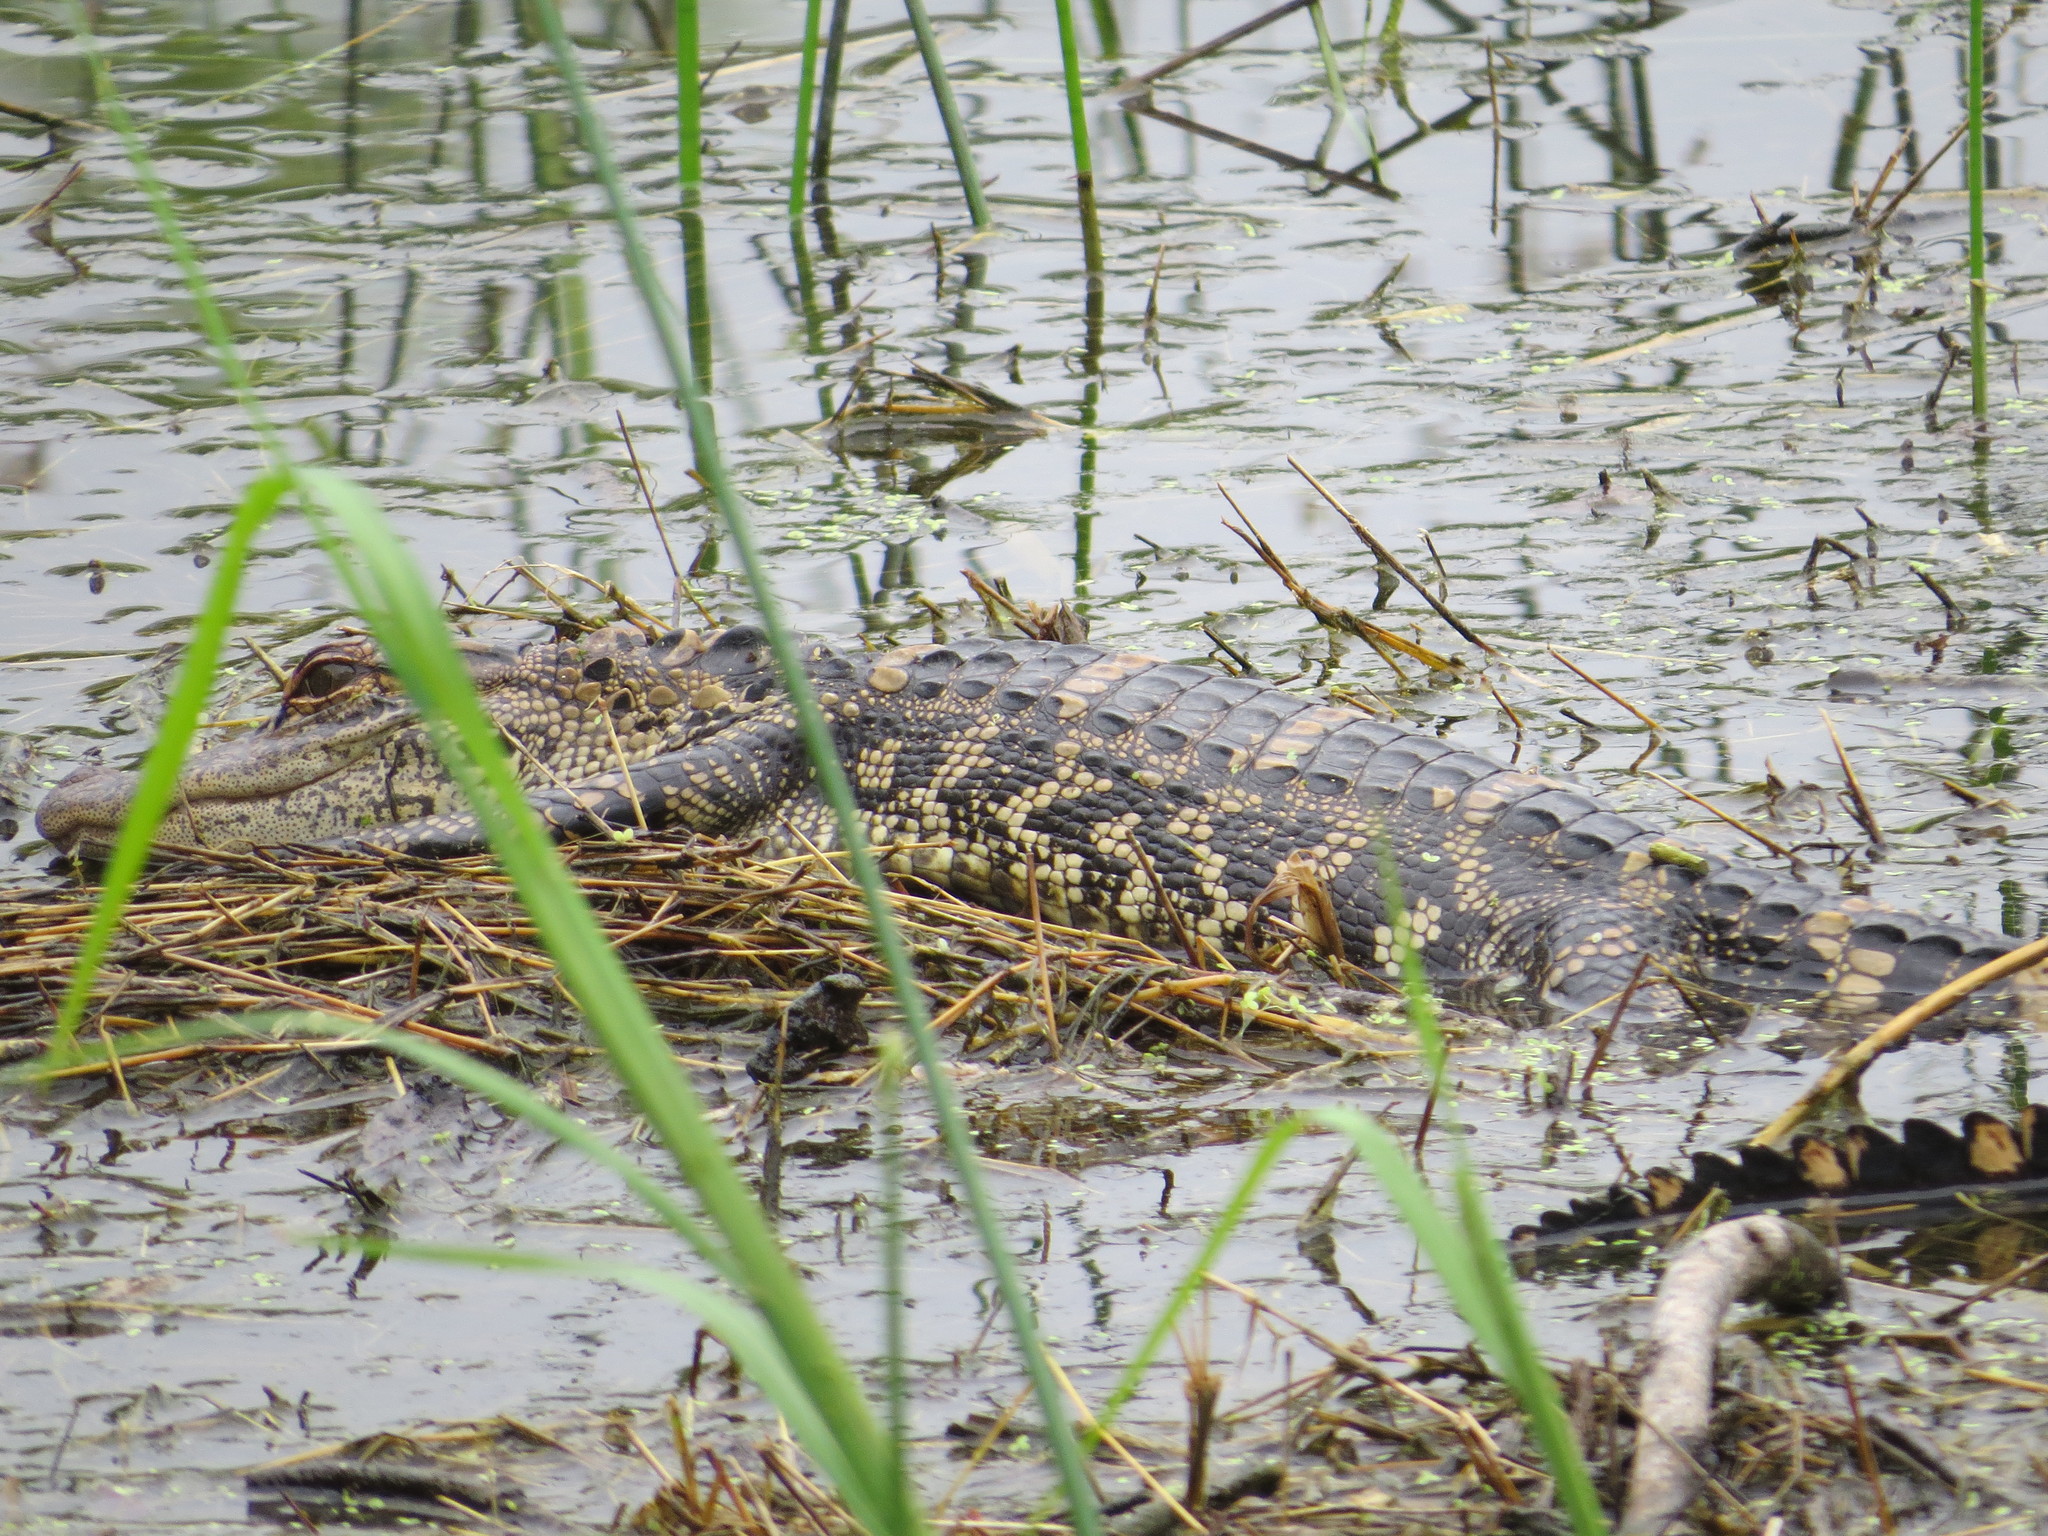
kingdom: Animalia
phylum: Chordata
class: Crocodylia
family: Alligatoridae
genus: Alligator
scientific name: Alligator mississippiensis
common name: American alligator
